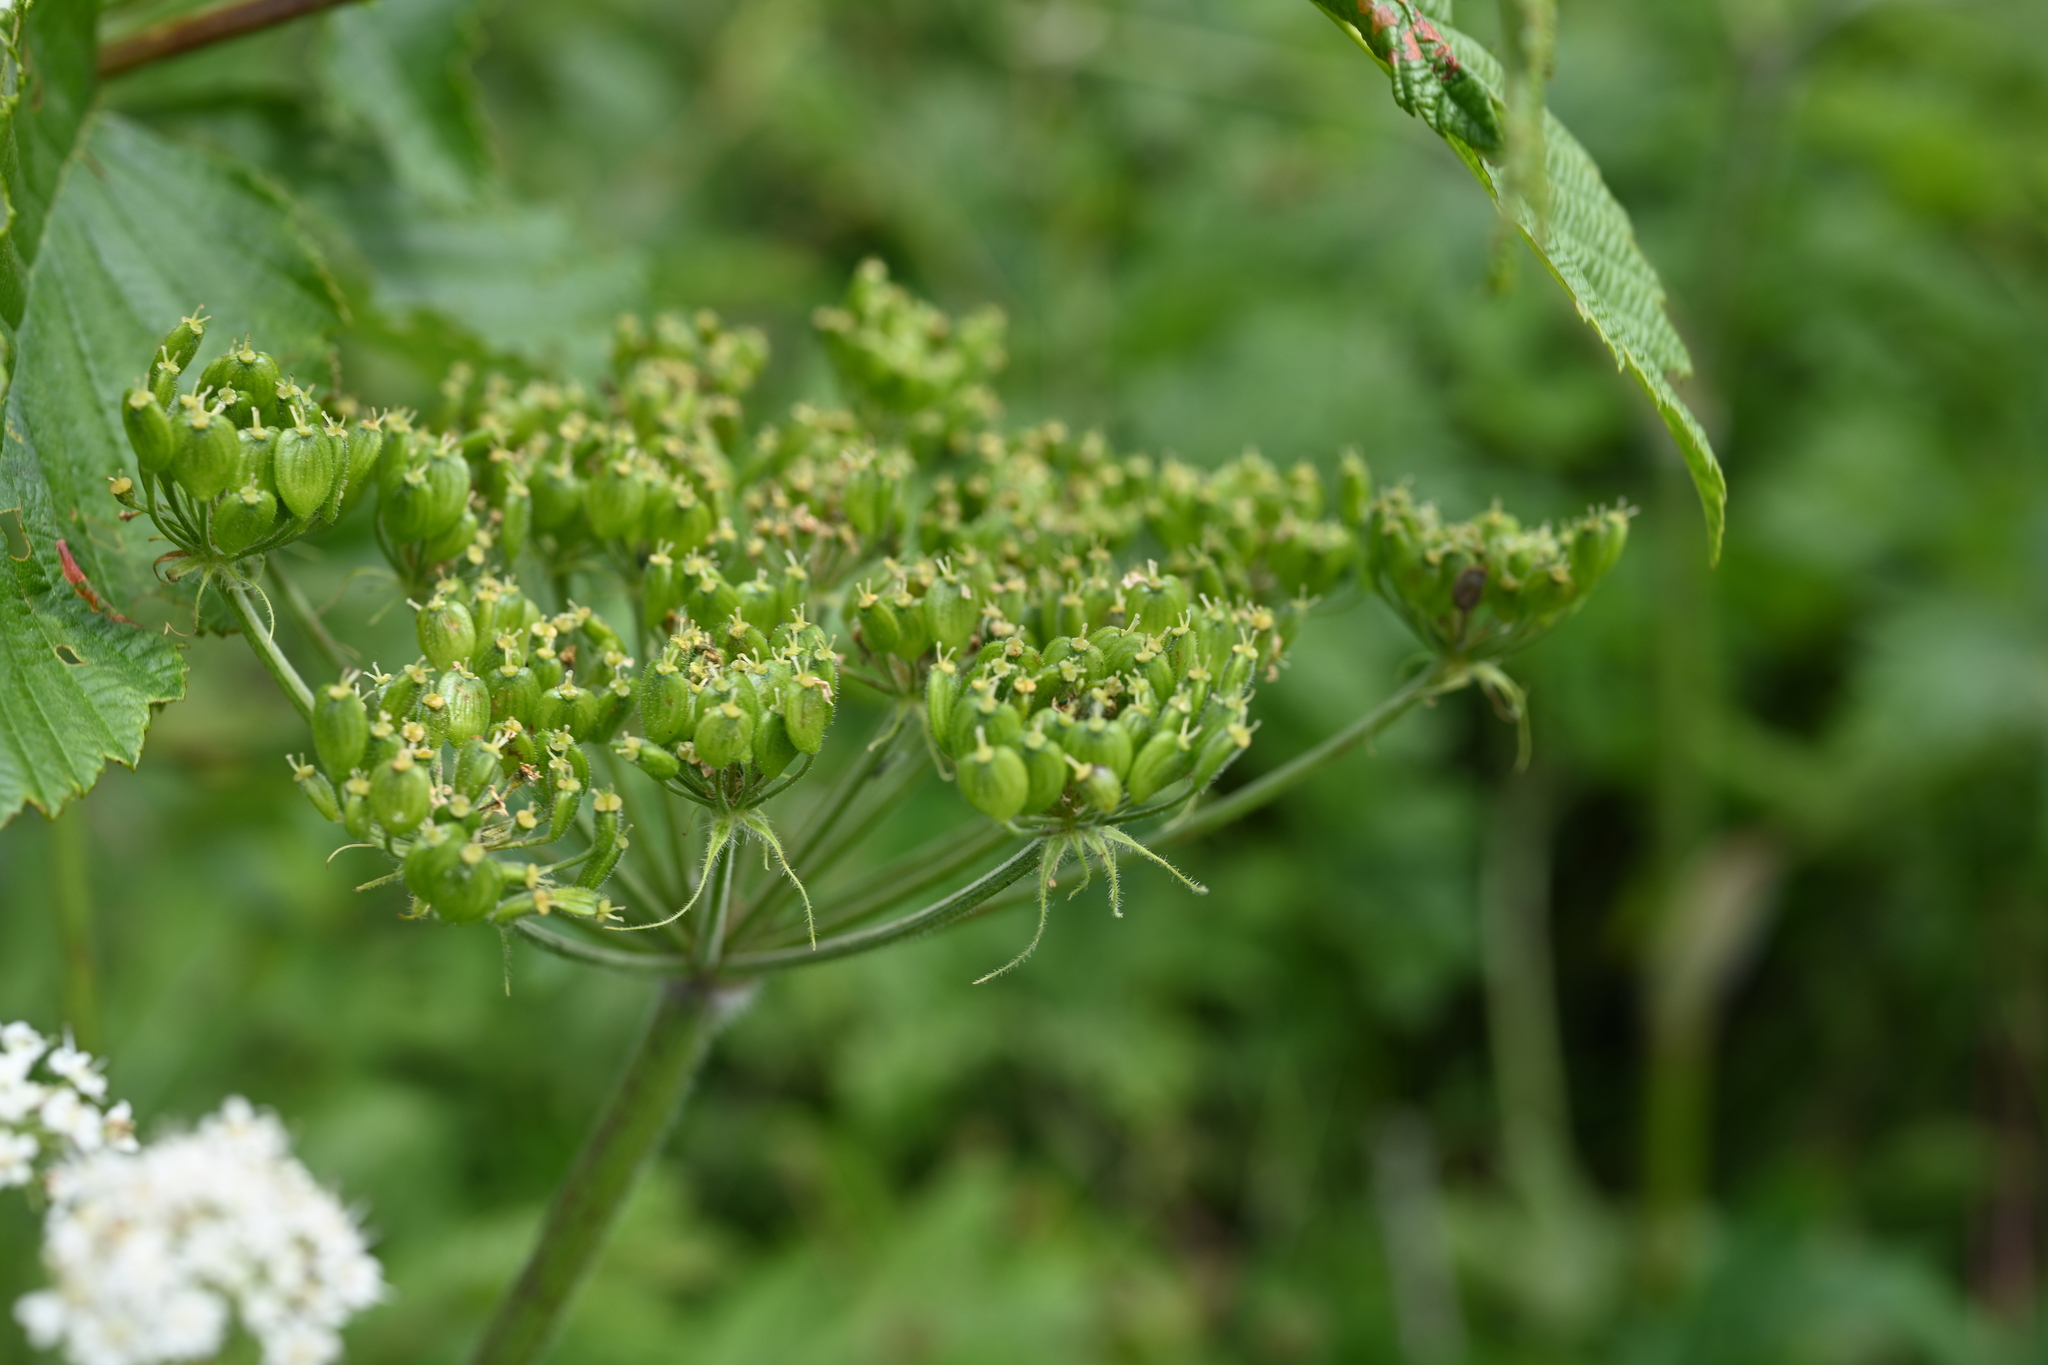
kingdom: Plantae
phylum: Tracheophyta
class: Magnoliopsida
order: Apiales
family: Apiaceae
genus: Heracleum
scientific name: Heracleum maximum
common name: American cow parsnip
